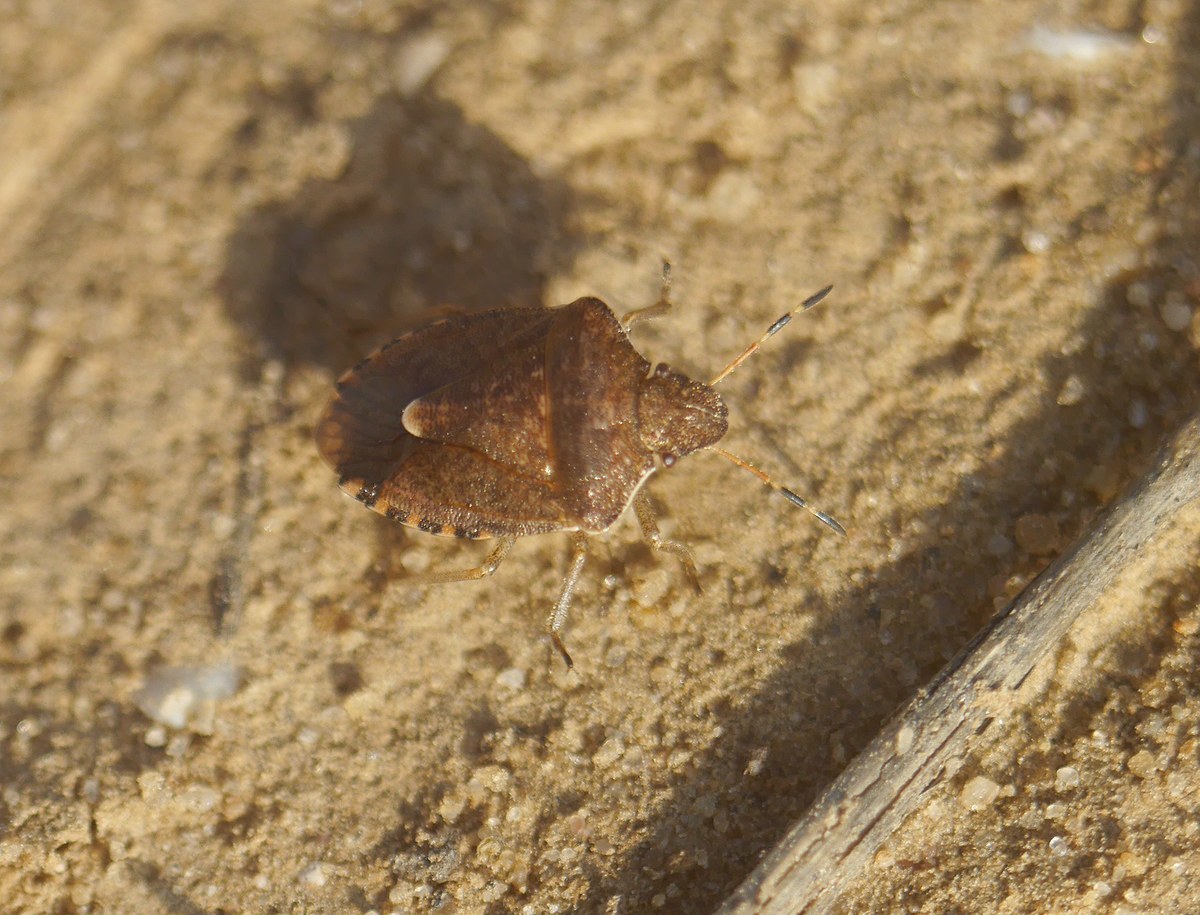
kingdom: Animalia
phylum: Arthropoda
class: Insecta
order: Hemiptera
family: Pentatomidae
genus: Holcostethus
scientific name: Holcostethus strictus
